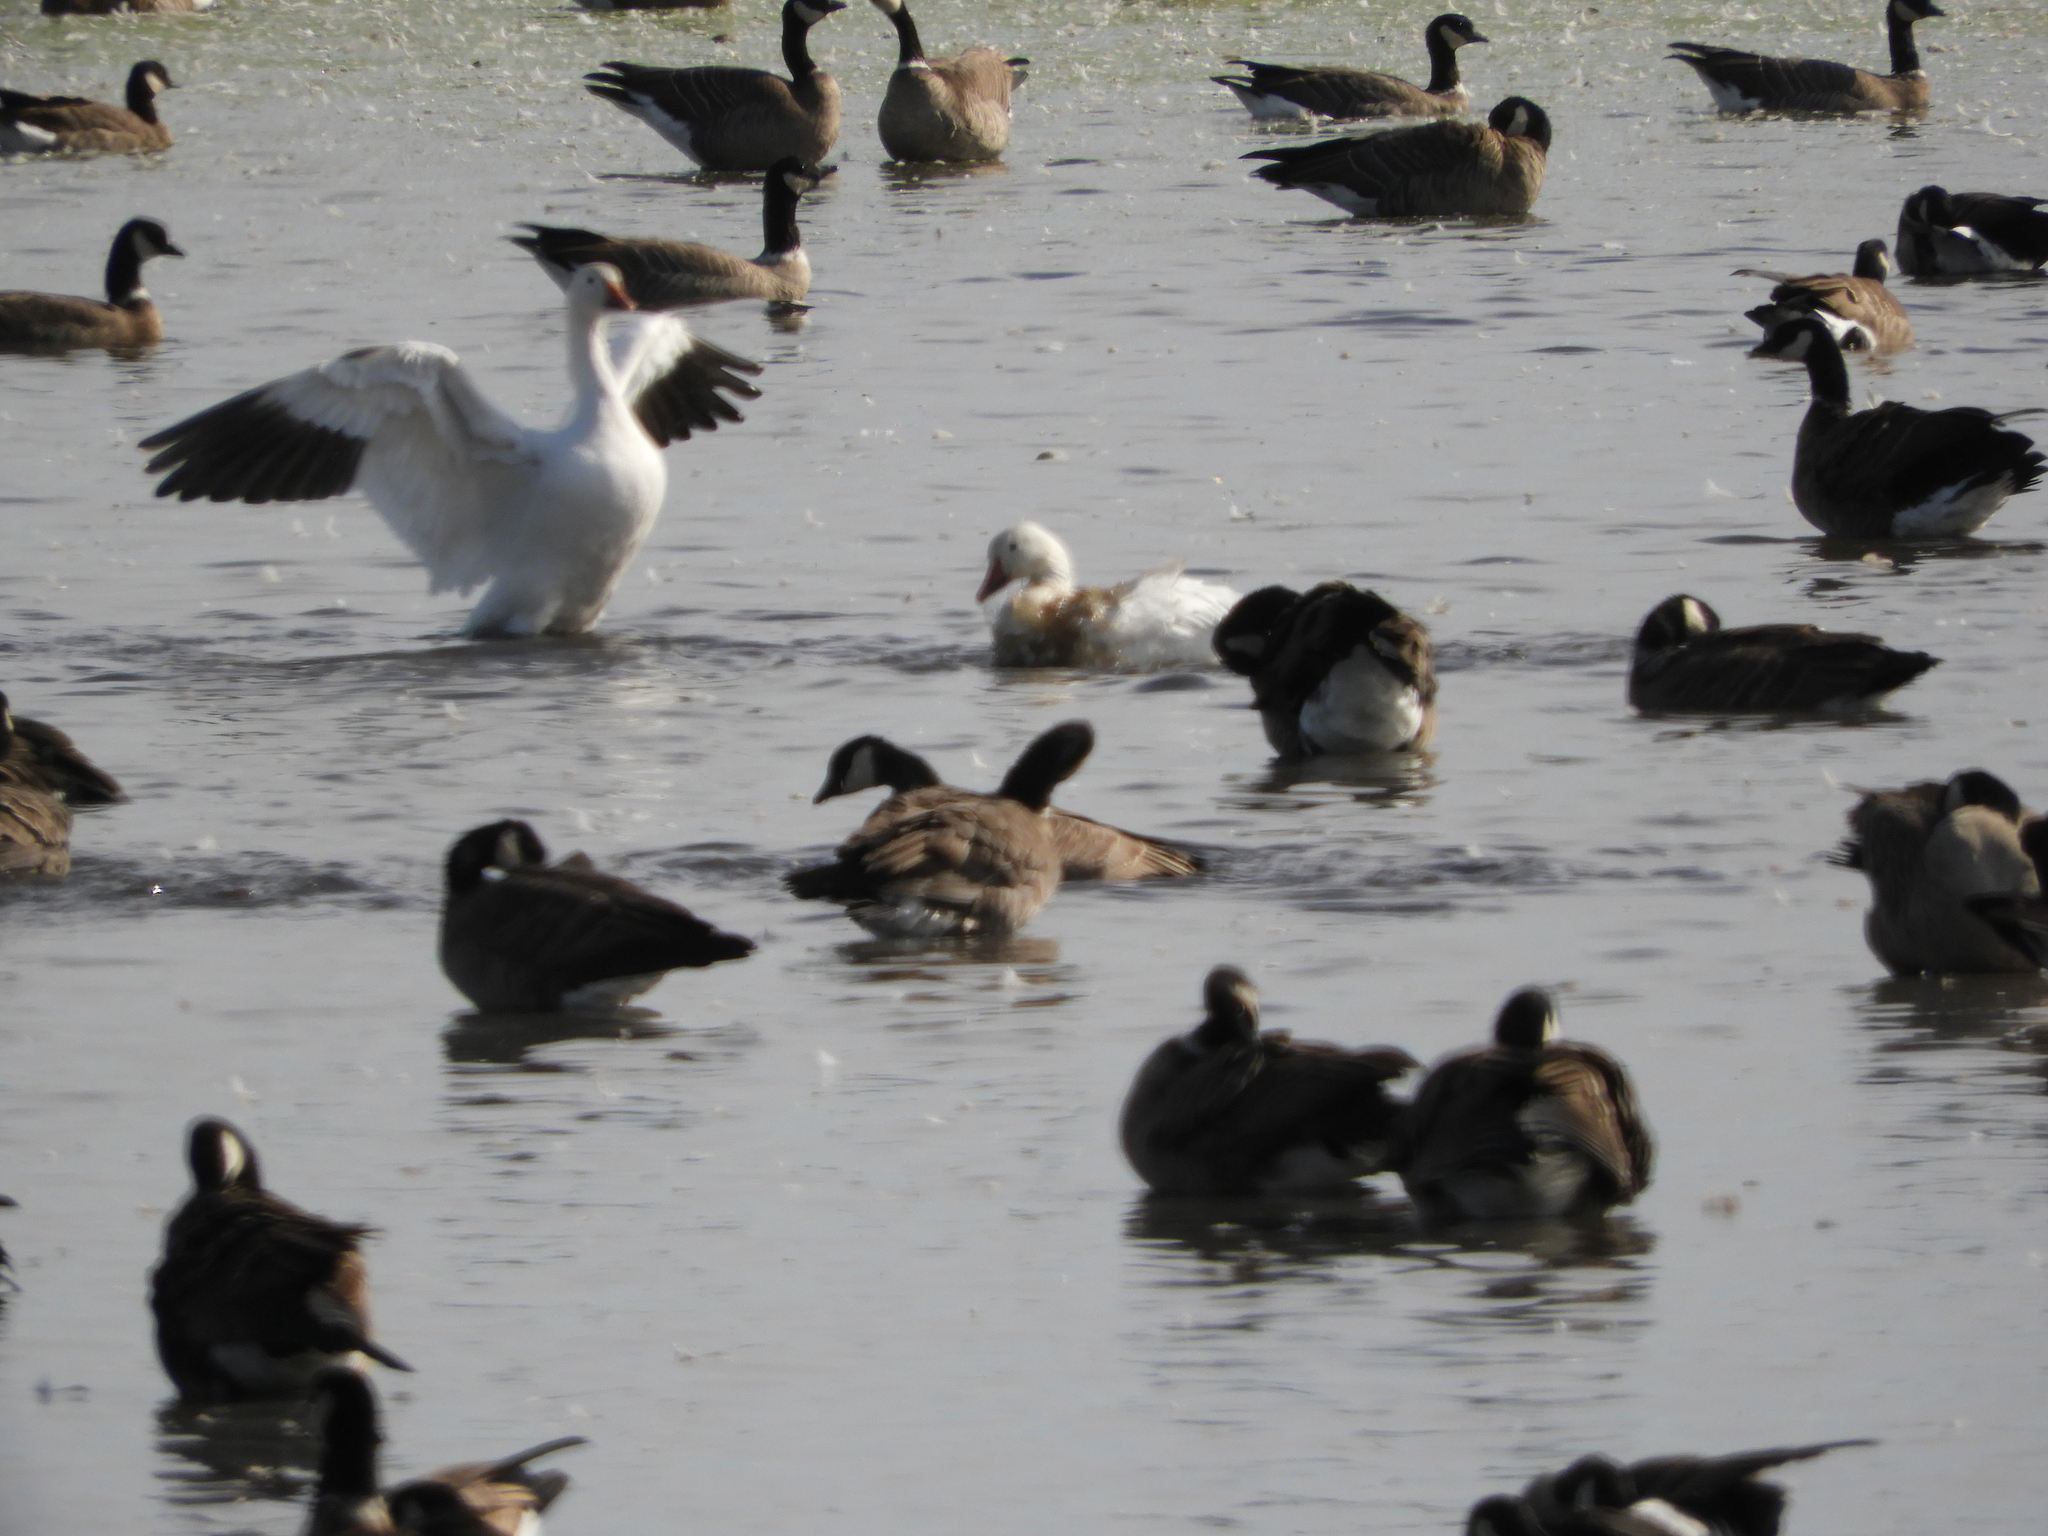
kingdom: Animalia
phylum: Chordata
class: Aves
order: Anseriformes
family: Anatidae
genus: Anser
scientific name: Anser caerulescens
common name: Snow goose
